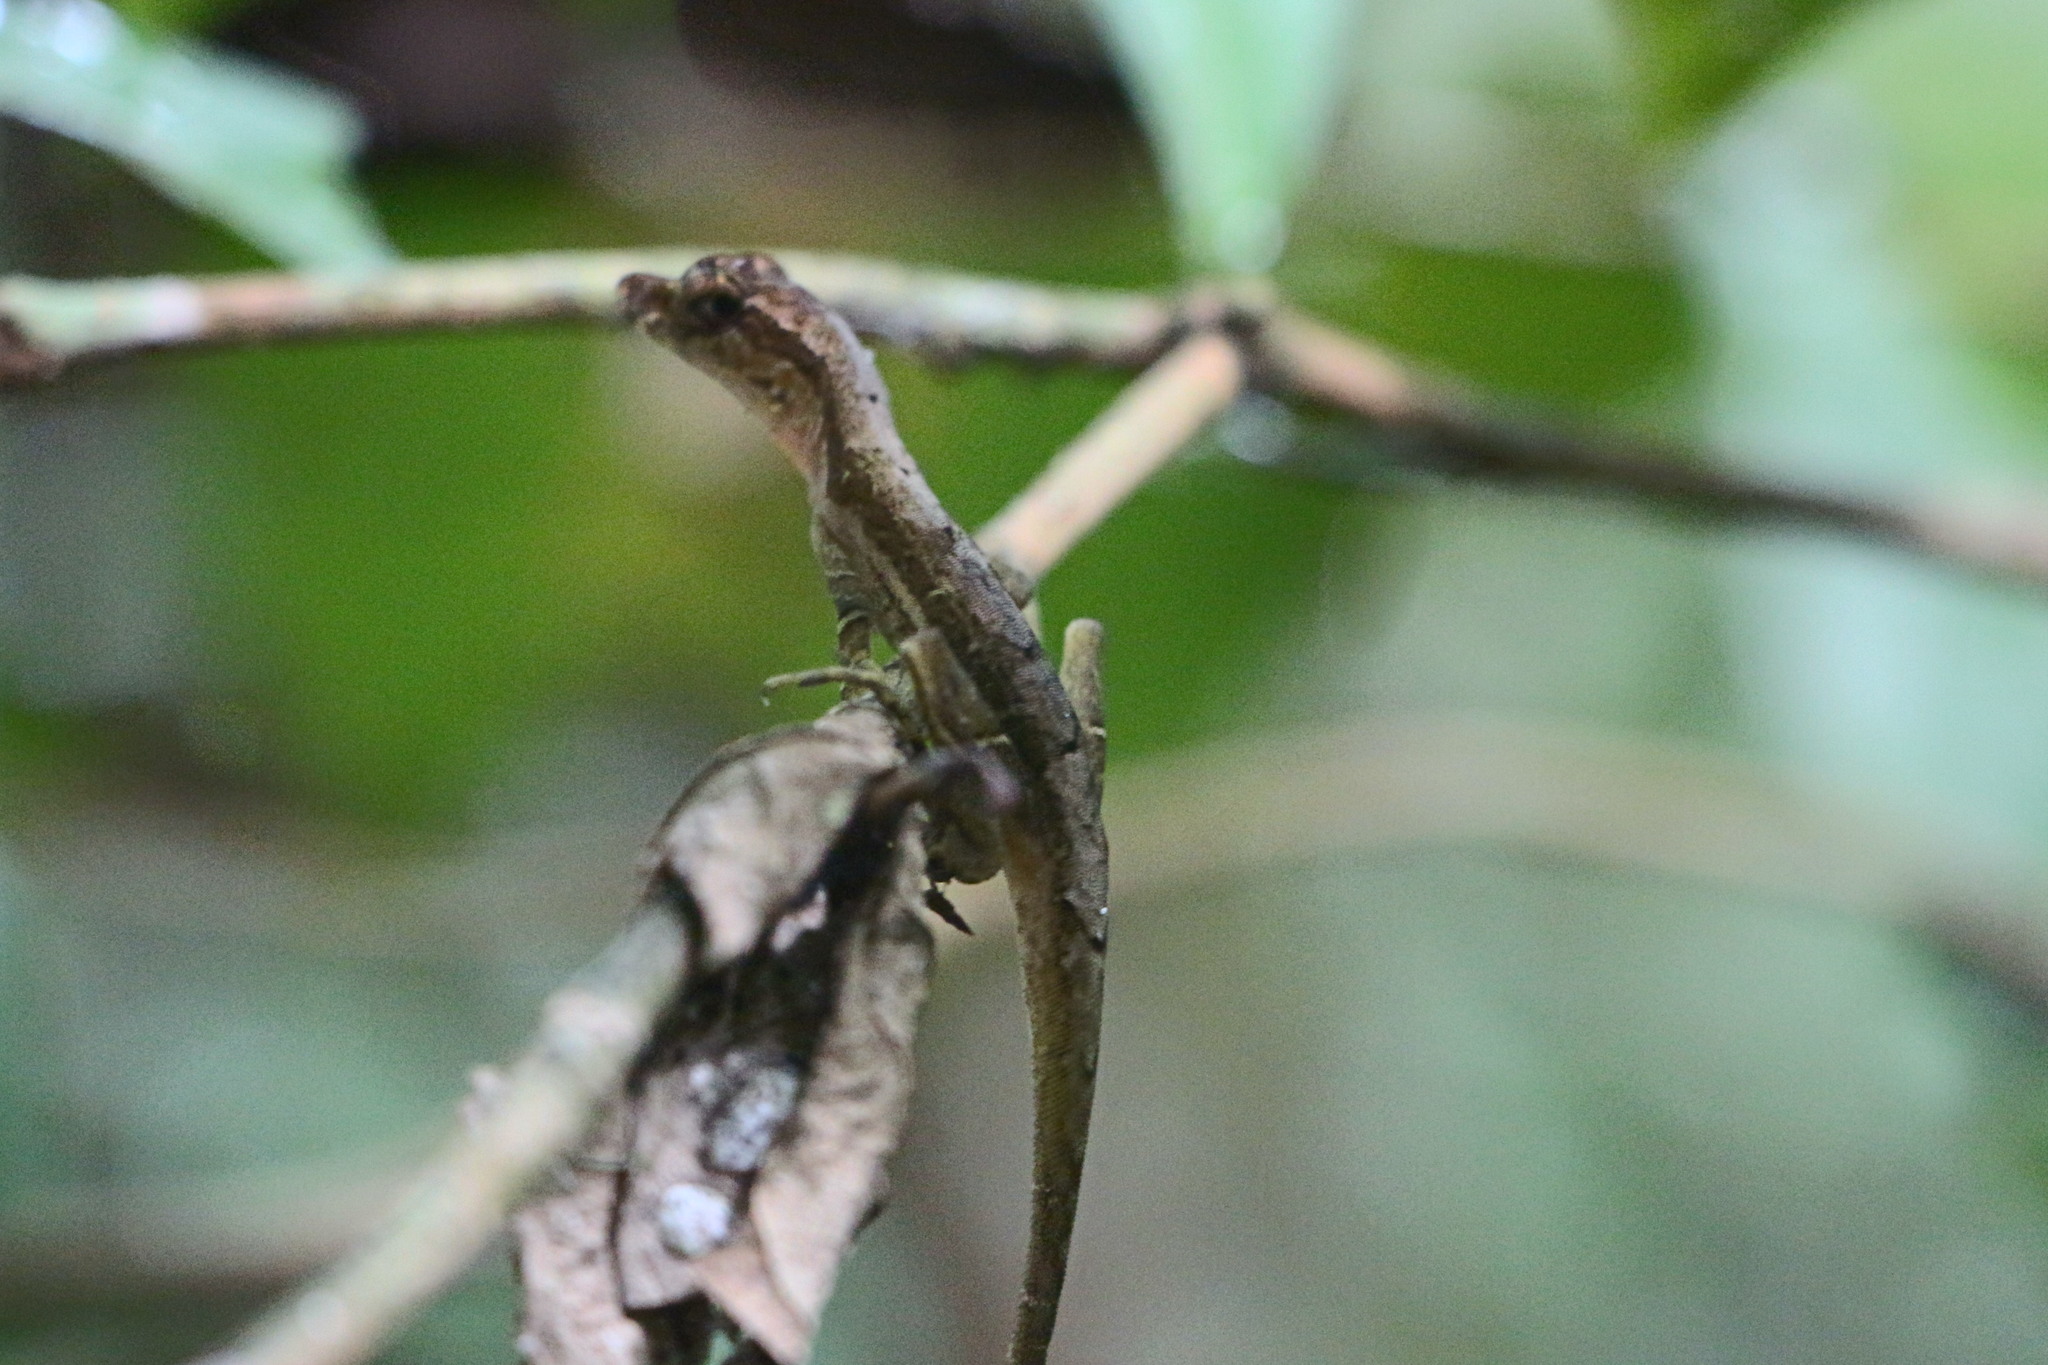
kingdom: Animalia
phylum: Chordata
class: Squamata
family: Dactyloidae
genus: Anolis
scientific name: Anolis trachyderma
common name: Common forest anole
